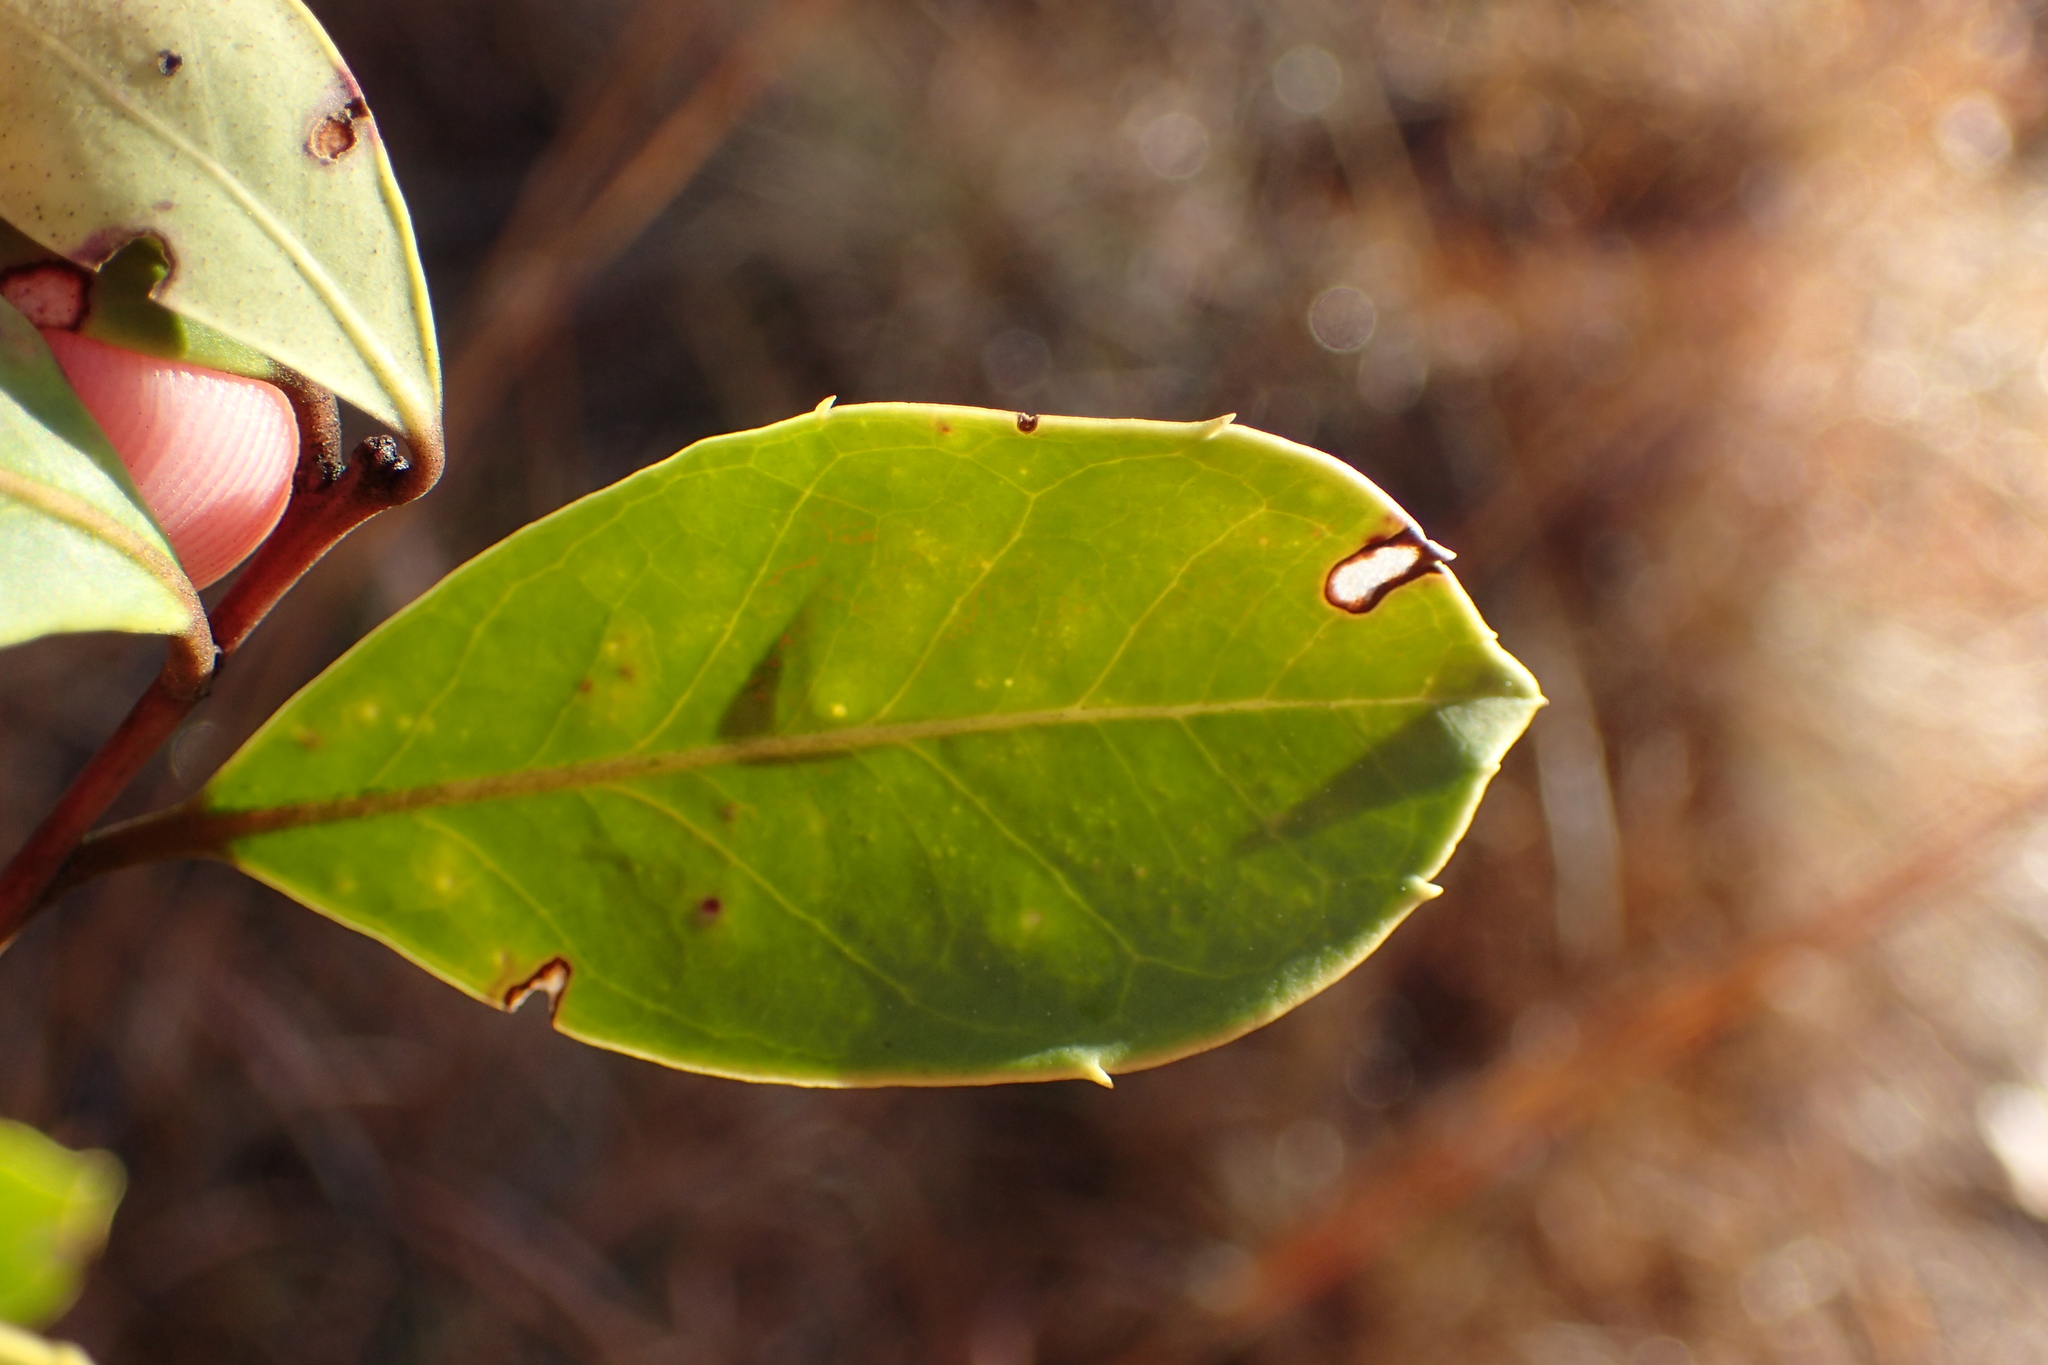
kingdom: Plantae
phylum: Tracheophyta
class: Magnoliopsida
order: Aquifoliales
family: Aquifoliaceae
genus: Ilex
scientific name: Ilex coriacea
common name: Sweet gallberry
